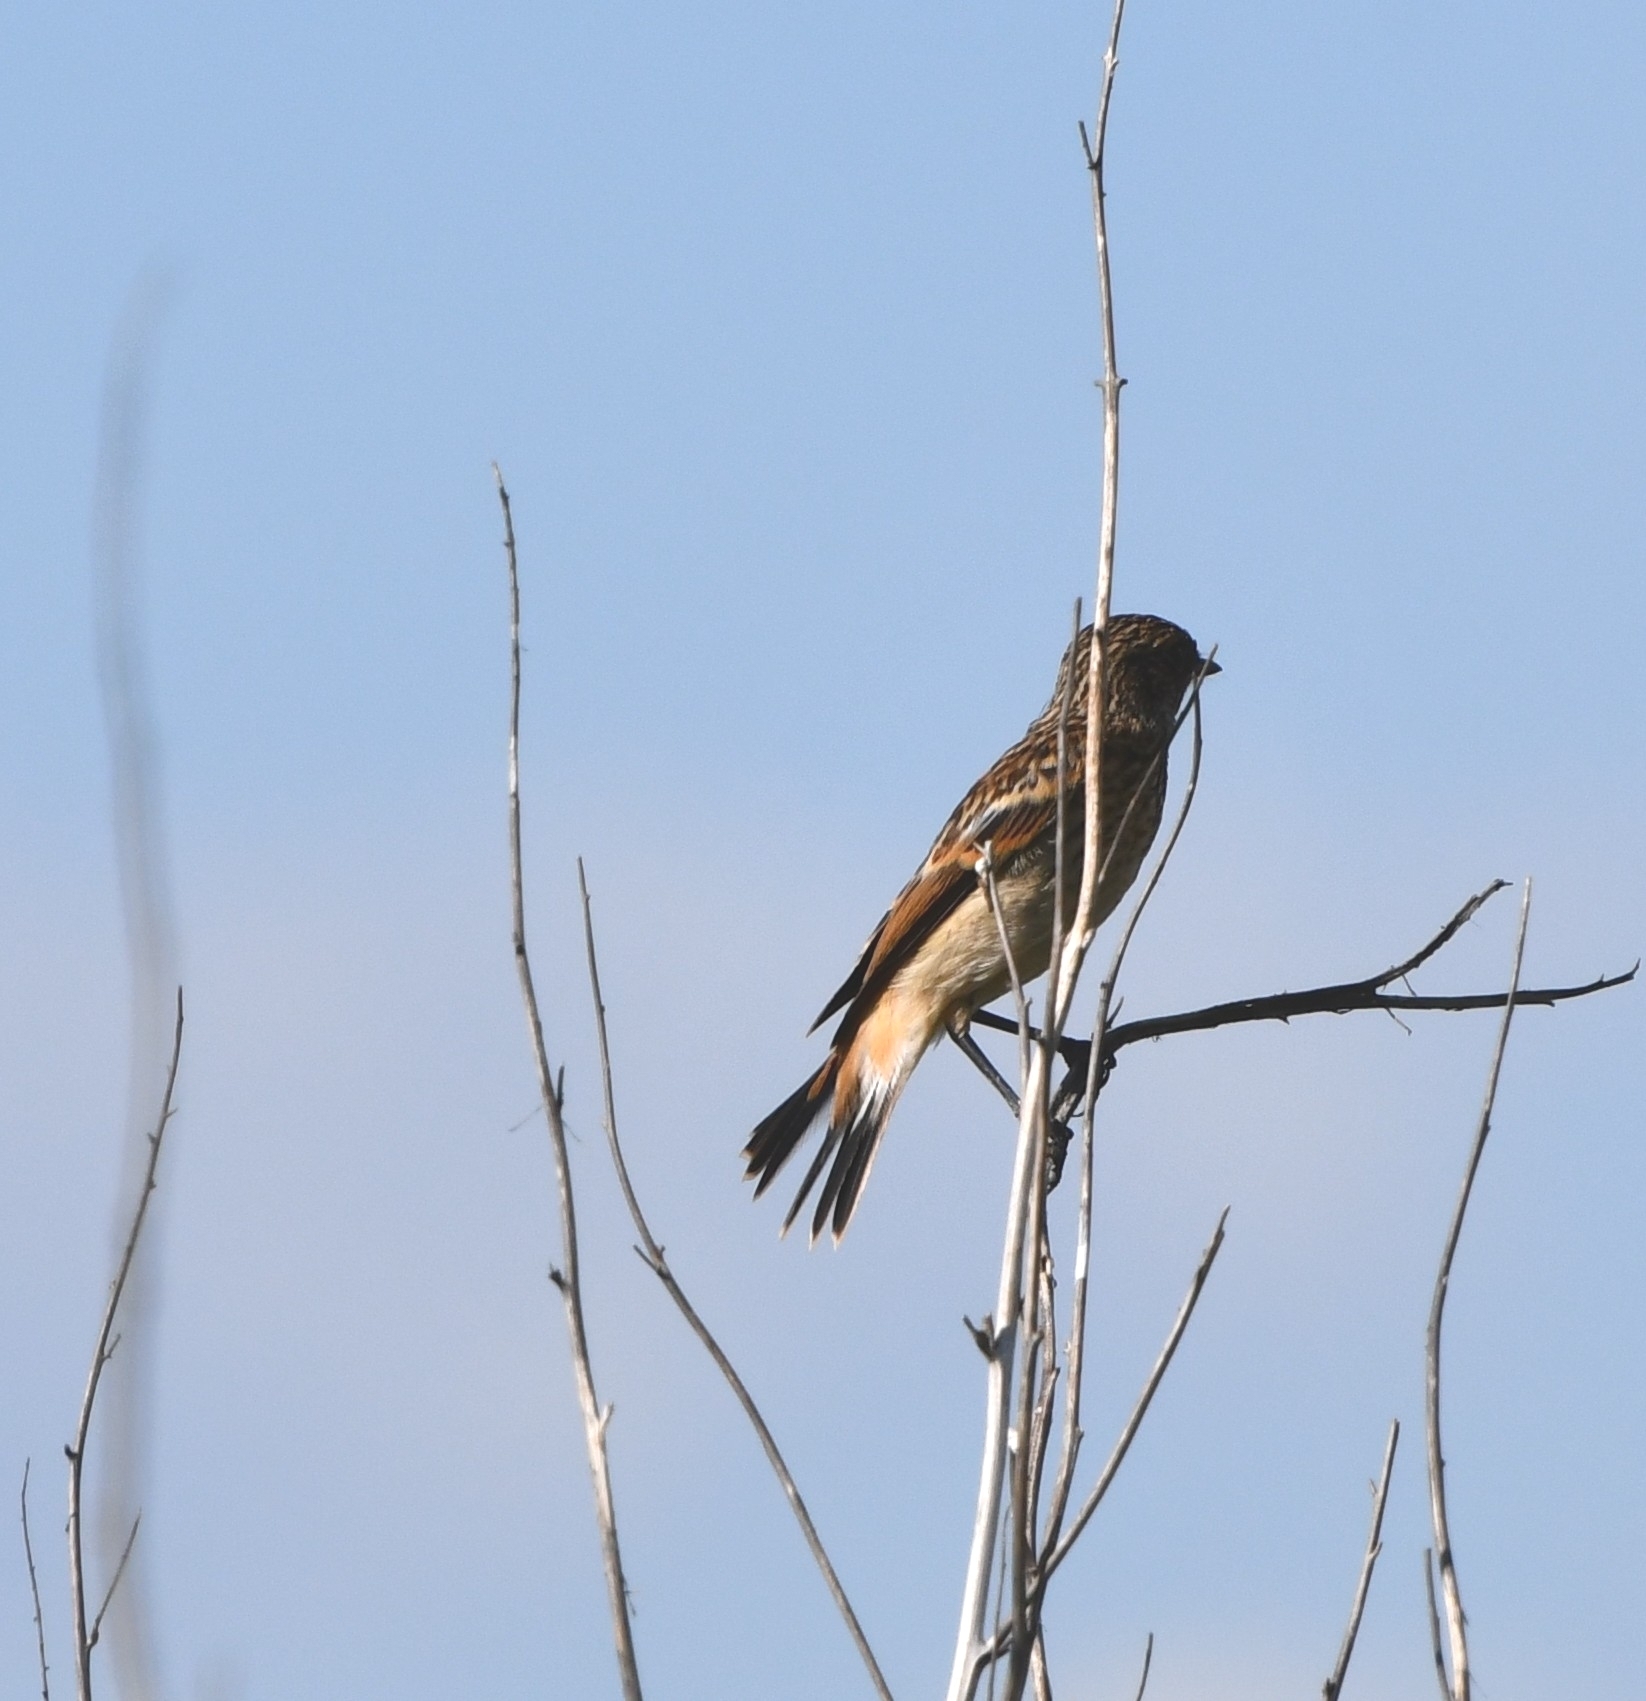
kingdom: Animalia
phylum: Chordata
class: Aves
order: Passeriformes
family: Muscicapidae
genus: Saxicola
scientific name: Saxicola maurus
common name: Siberian stonechat
